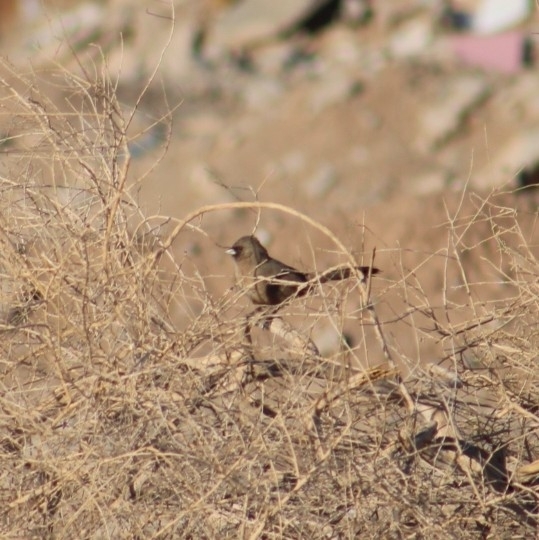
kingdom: Animalia
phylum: Chordata
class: Aves
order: Passeriformes
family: Passerellidae
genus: Melozone
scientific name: Melozone aberti
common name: Abert's towhee
